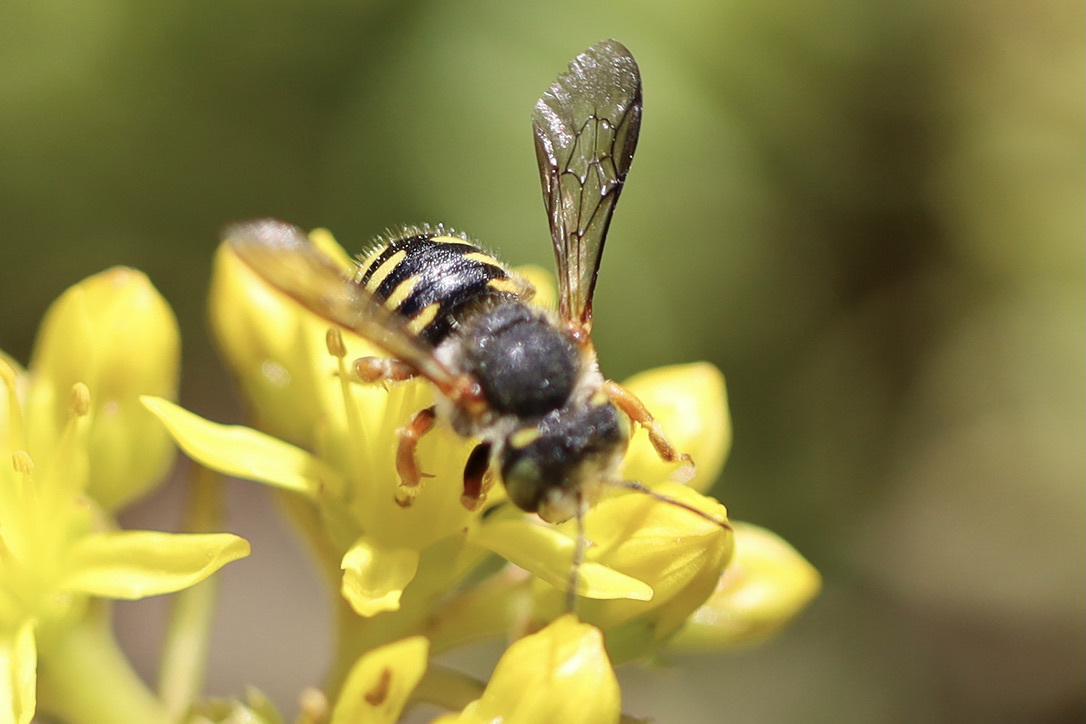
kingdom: Animalia
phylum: Arthropoda
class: Insecta
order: Hymenoptera
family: Megachilidae
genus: Anthidium
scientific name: Anthidium oblongatum
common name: Oblong wool carder bee
